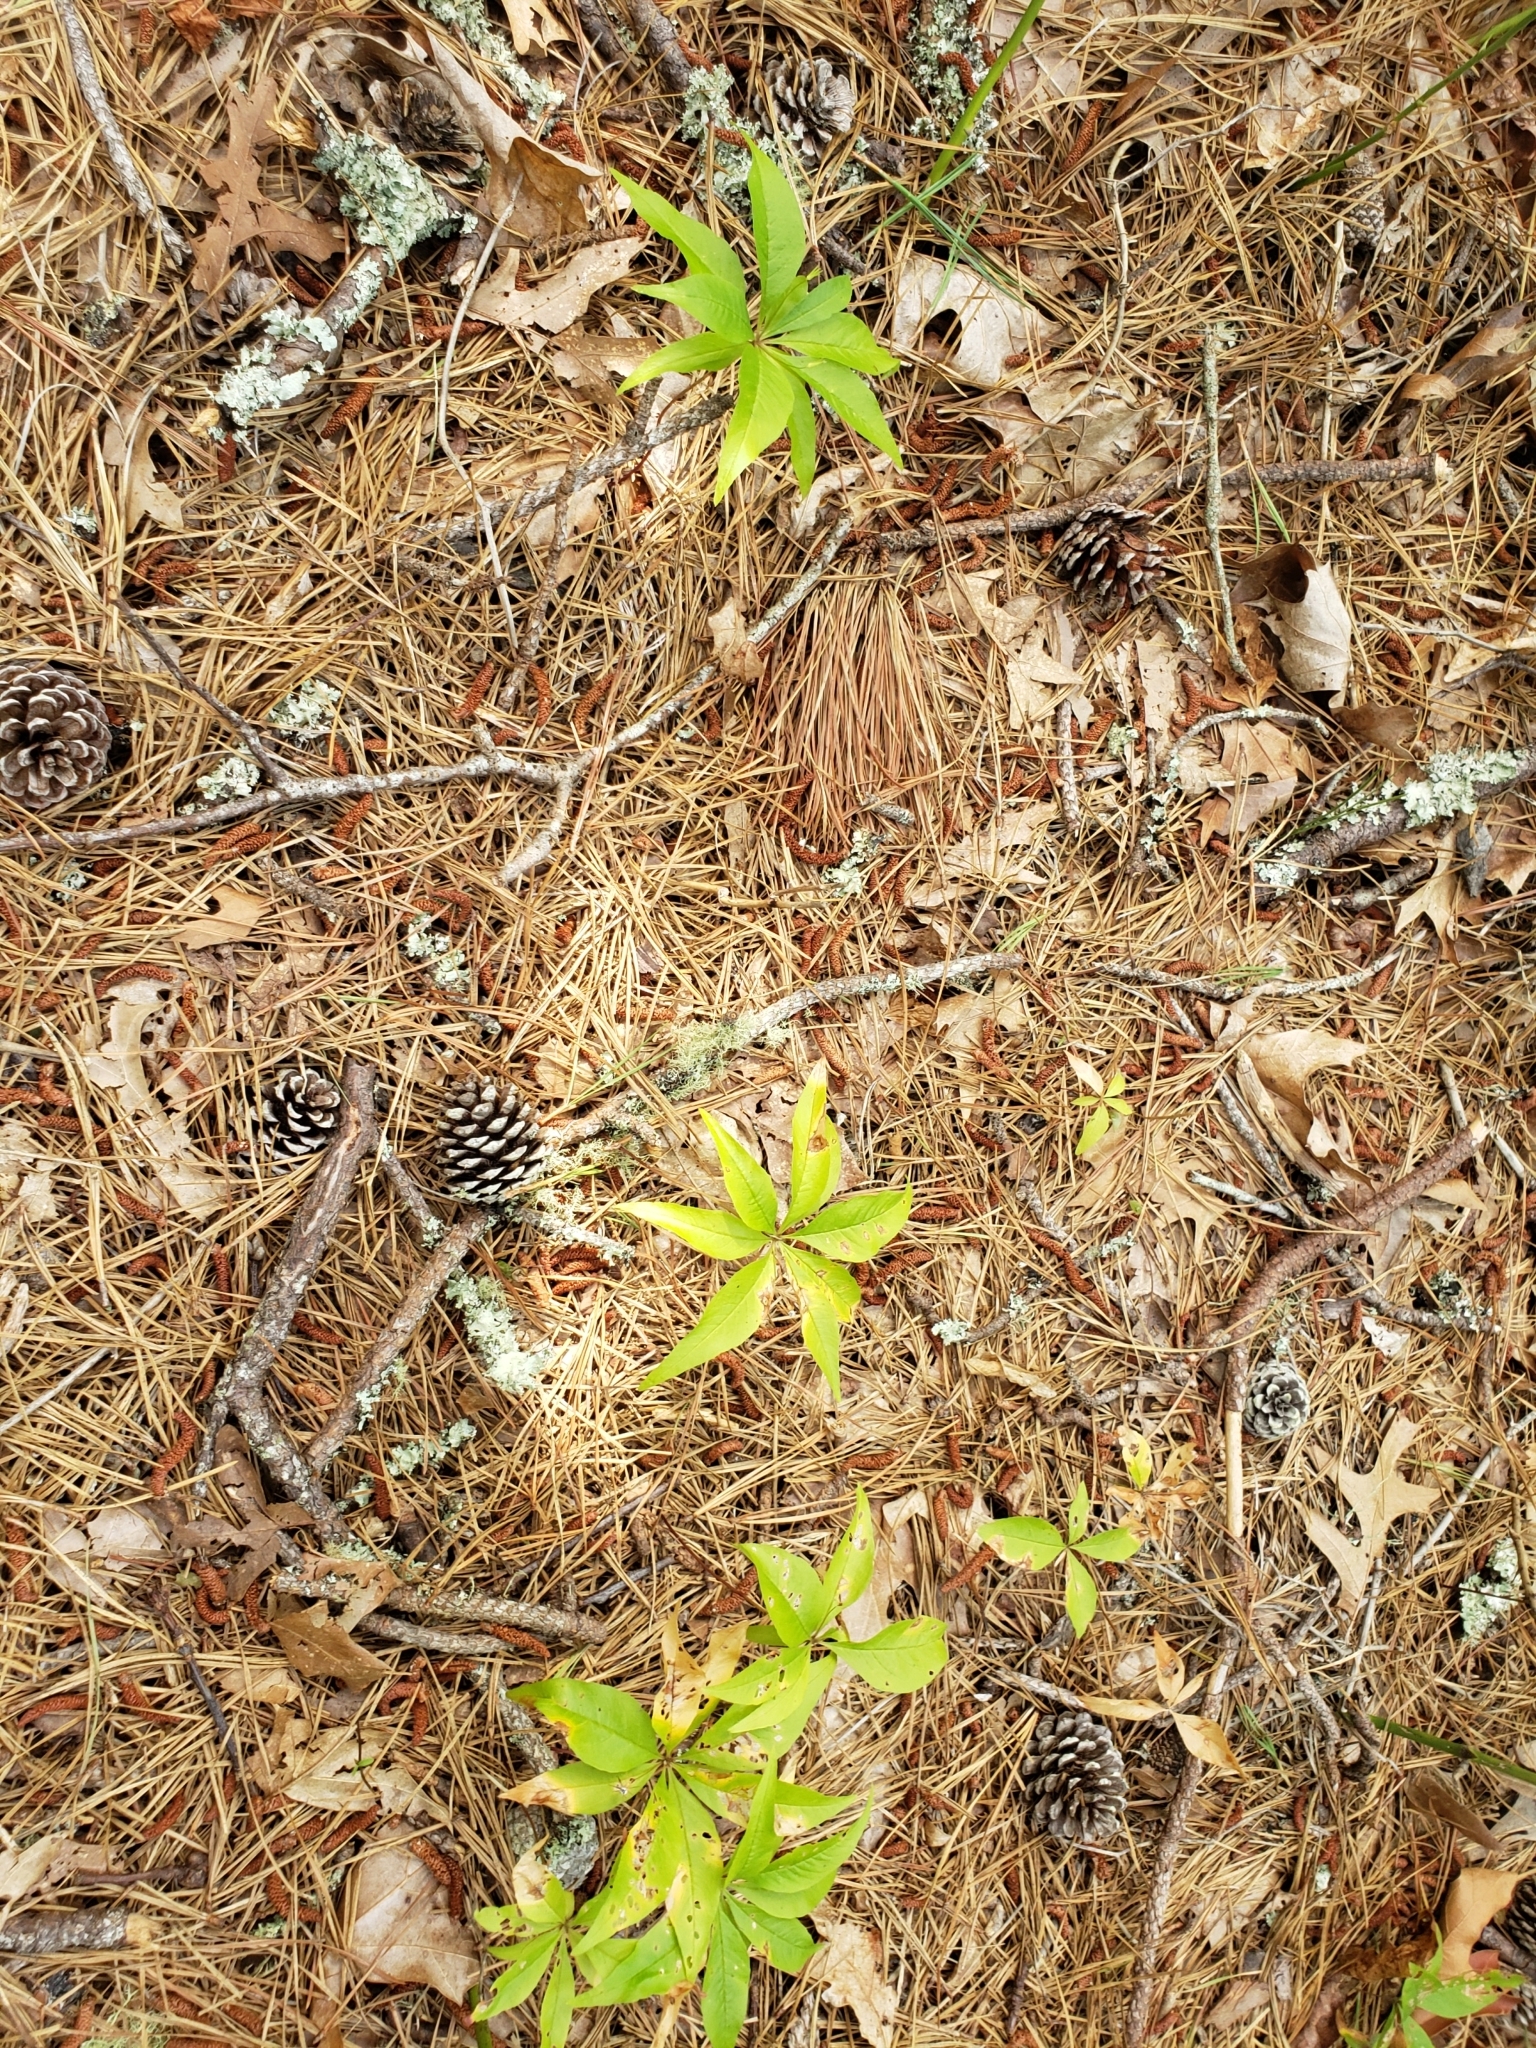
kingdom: Plantae
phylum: Tracheophyta
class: Magnoliopsida
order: Ericales
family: Primulaceae
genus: Lysimachia
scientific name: Lysimachia borealis
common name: American starflower
